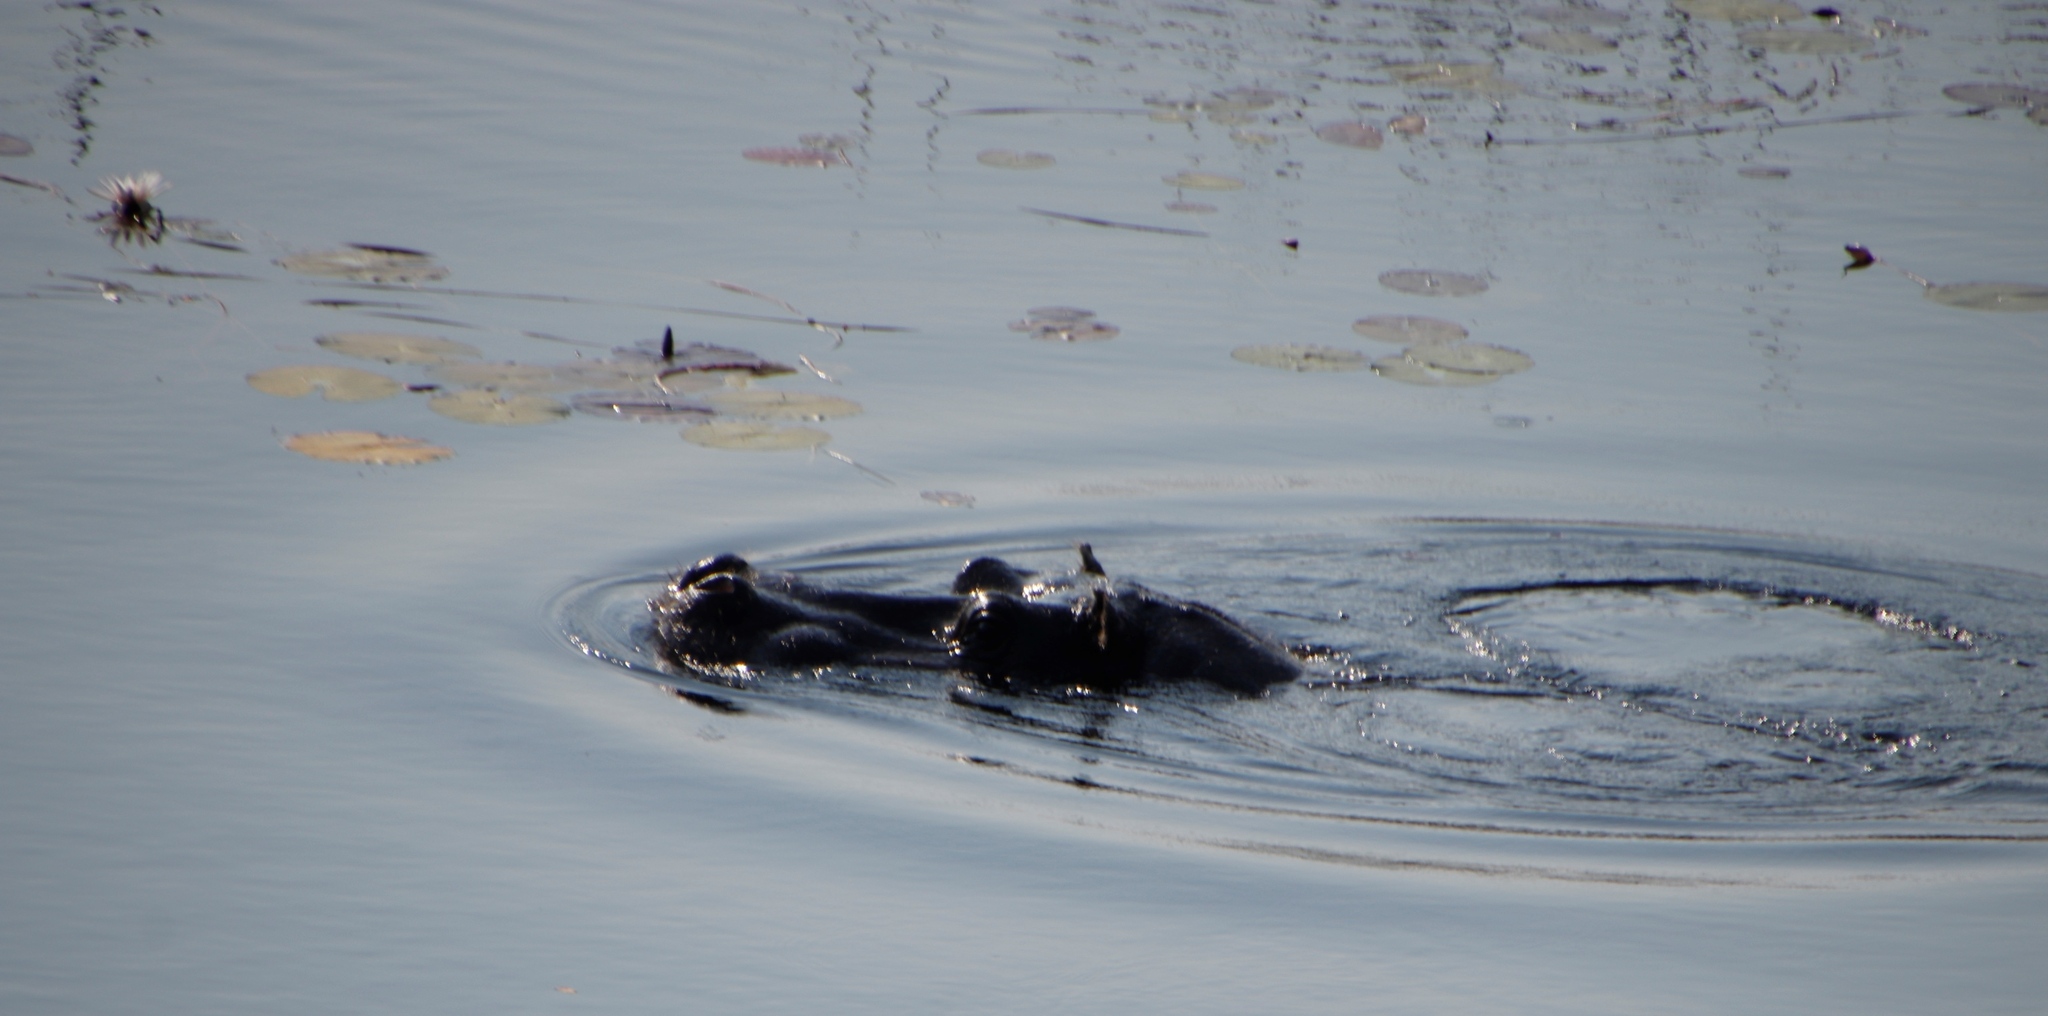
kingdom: Animalia
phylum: Chordata
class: Mammalia
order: Artiodactyla
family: Hippopotamidae
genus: Hippopotamus
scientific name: Hippopotamus amphibius
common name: Common hippopotamus
